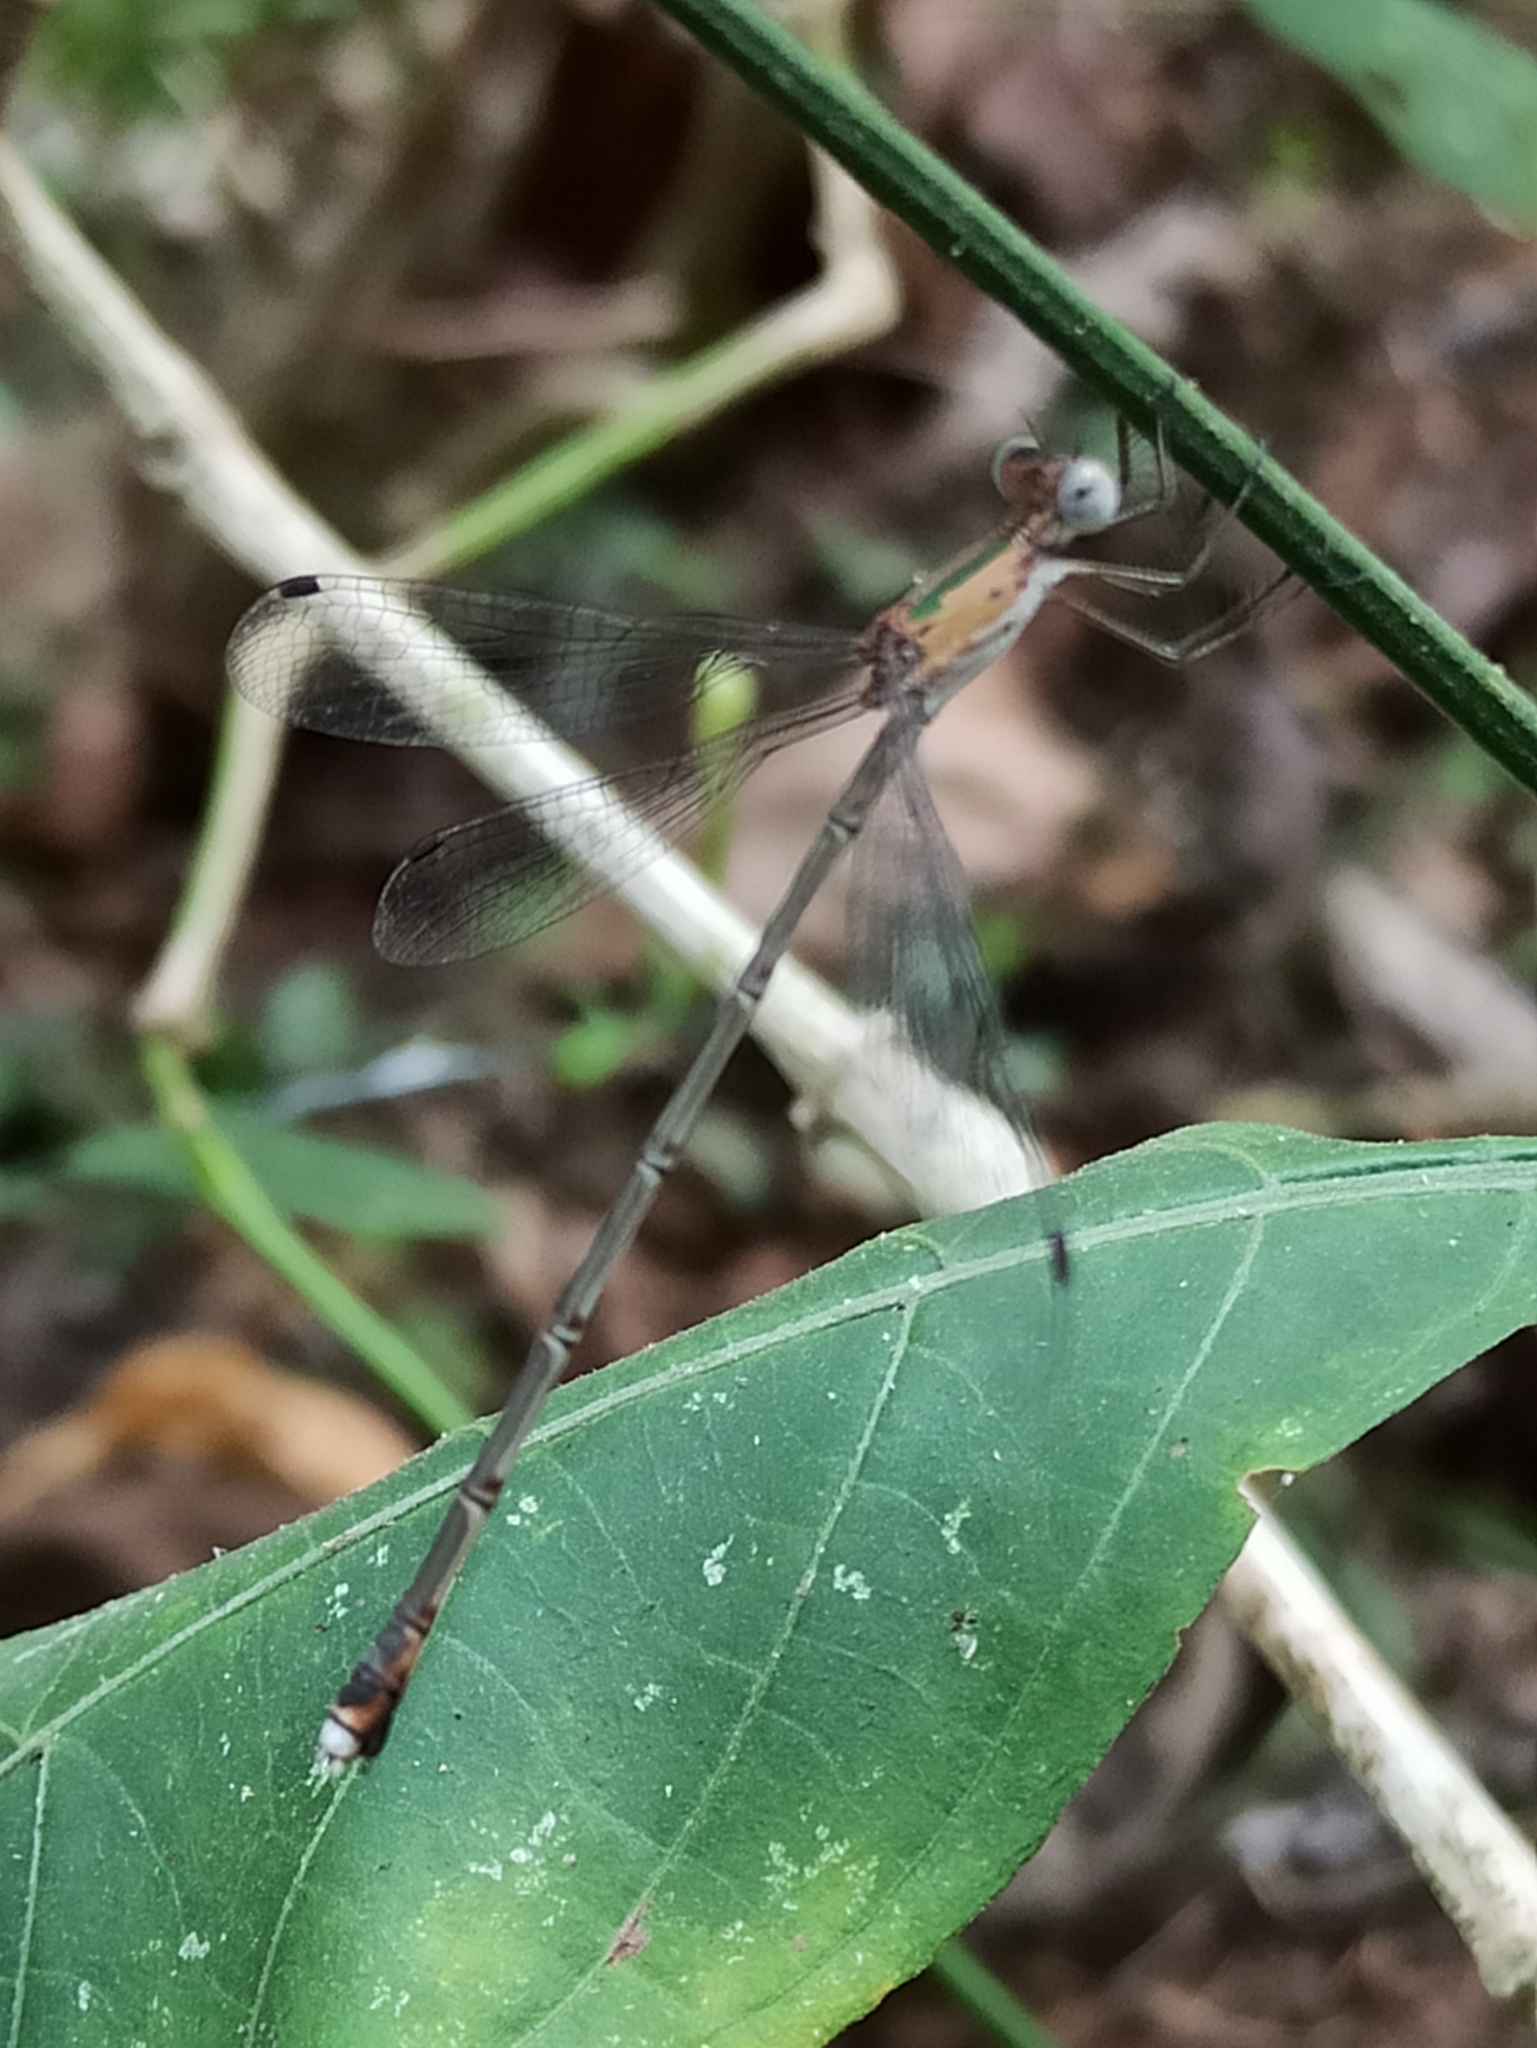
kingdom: Animalia
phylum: Arthropoda
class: Insecta
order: Odonata
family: Lestidae
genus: Lestes
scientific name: Lestes elatus
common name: Emerald spreadwing
